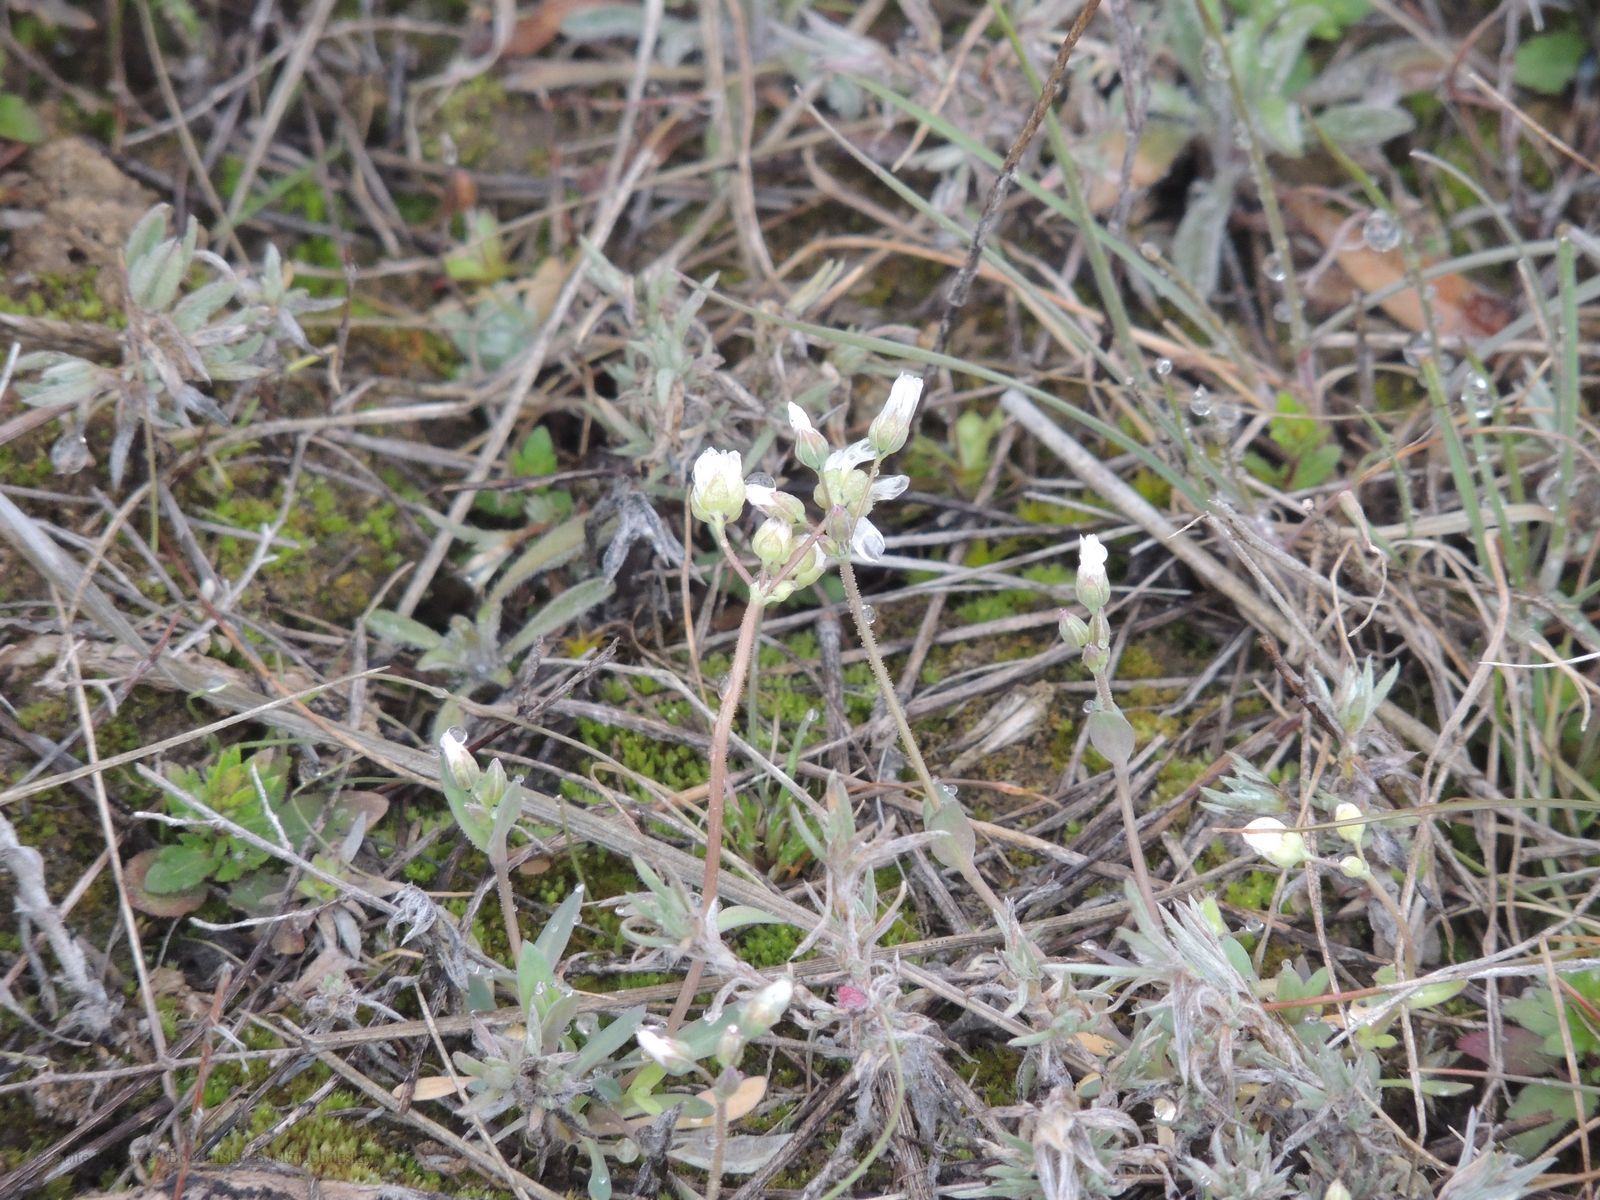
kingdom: Plantae
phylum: Tracheophyta
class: Magnoliopsida
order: Caryophyllales
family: Caryophyllaceae
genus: Holosteum
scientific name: Holosteum umbellatum
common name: Jagged chickweed
